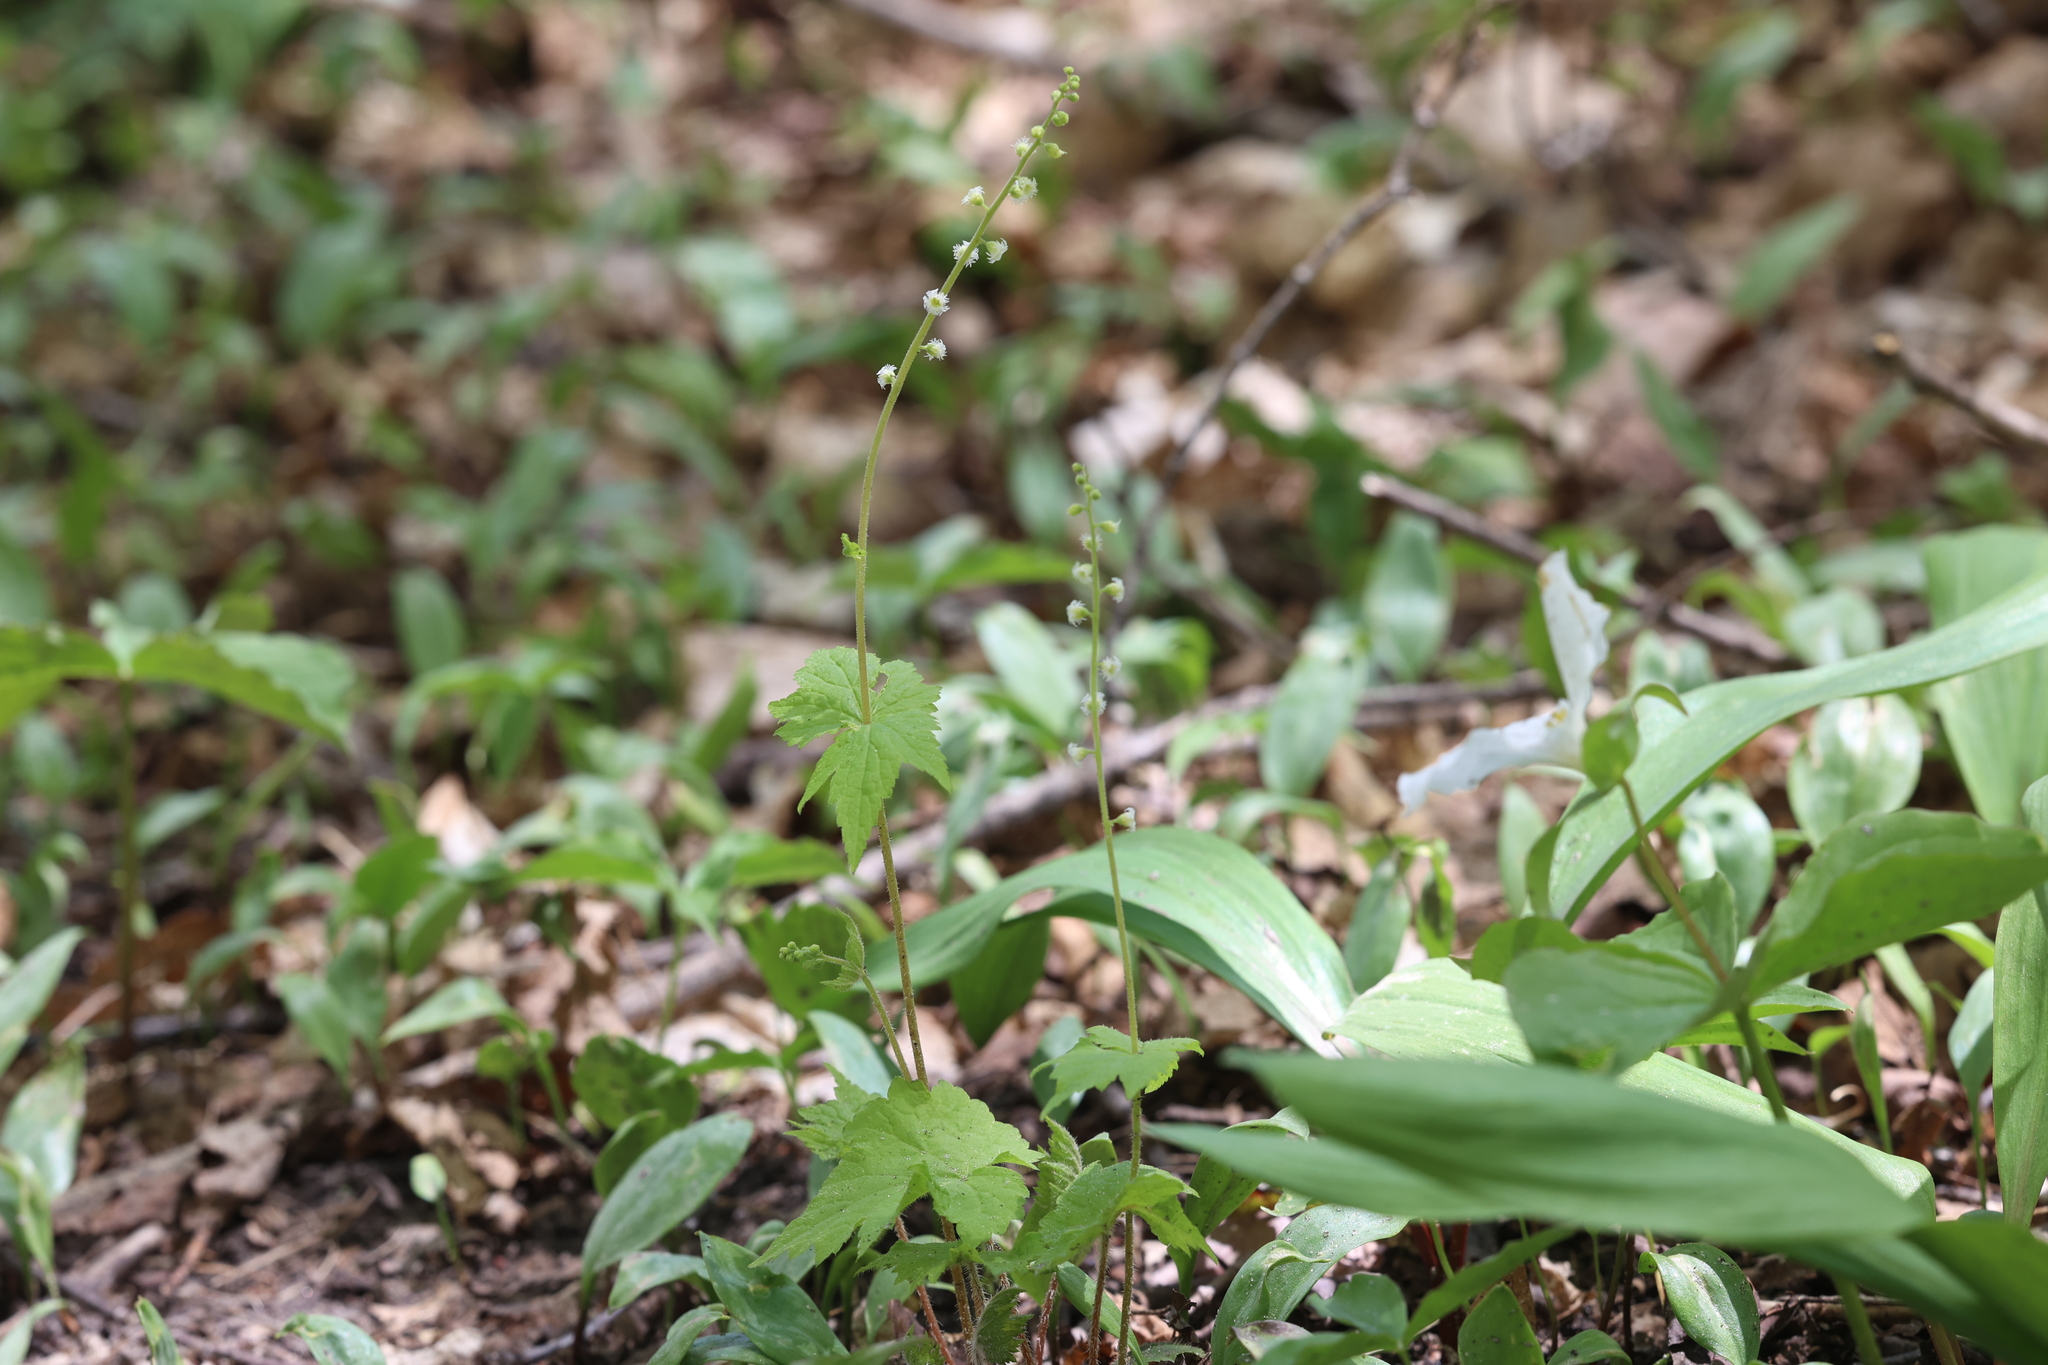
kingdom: Plantae
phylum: Tracheophyta
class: Magnoliopsida
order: Saxifragales
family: Saxifragaceae
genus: Mitella
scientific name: Mitella diphylla
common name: Coolwort
